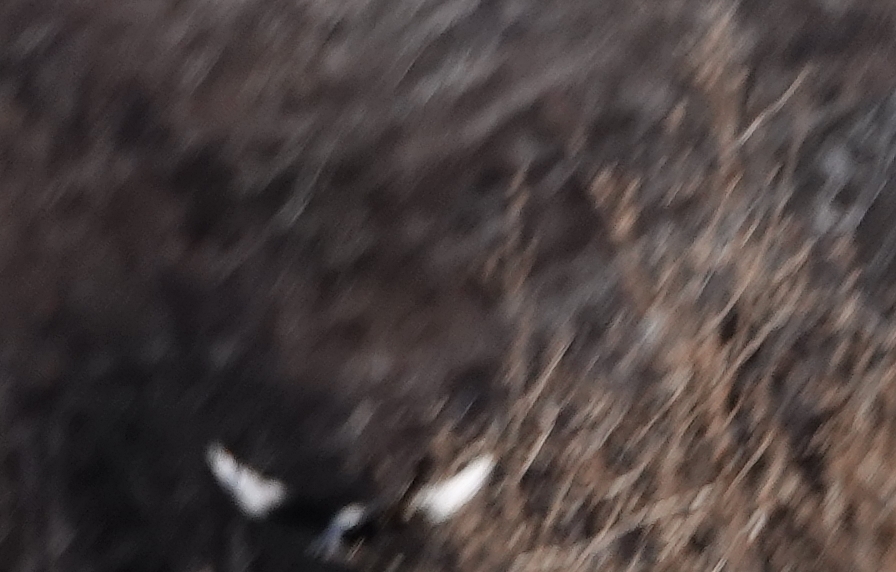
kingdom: Animalia
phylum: Chordata
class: Aves
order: Passeriformes
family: Corvidae
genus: Pica
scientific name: Pica hudsonia
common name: Black-billed magpie
